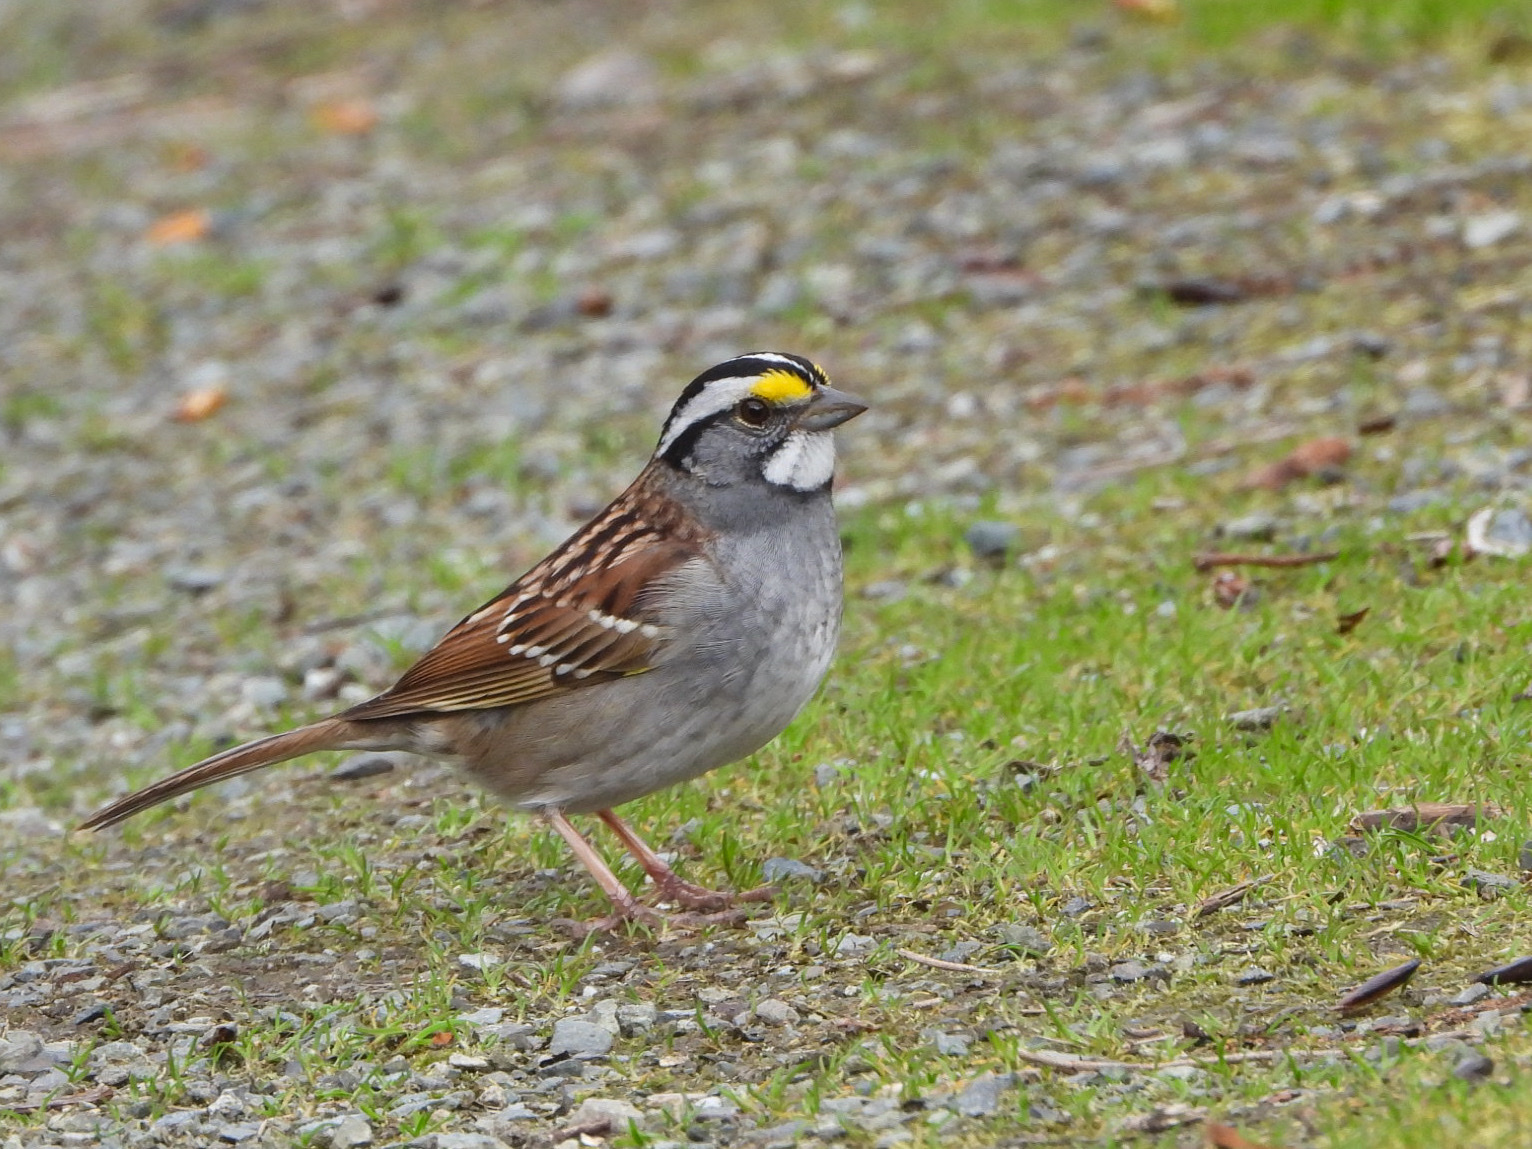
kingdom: Animalia
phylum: Chordata
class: Aves
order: Passeriformes
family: Passerellidae
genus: Zonotrichia
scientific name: Zonotrichia albicollis
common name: White-throated sparrow
